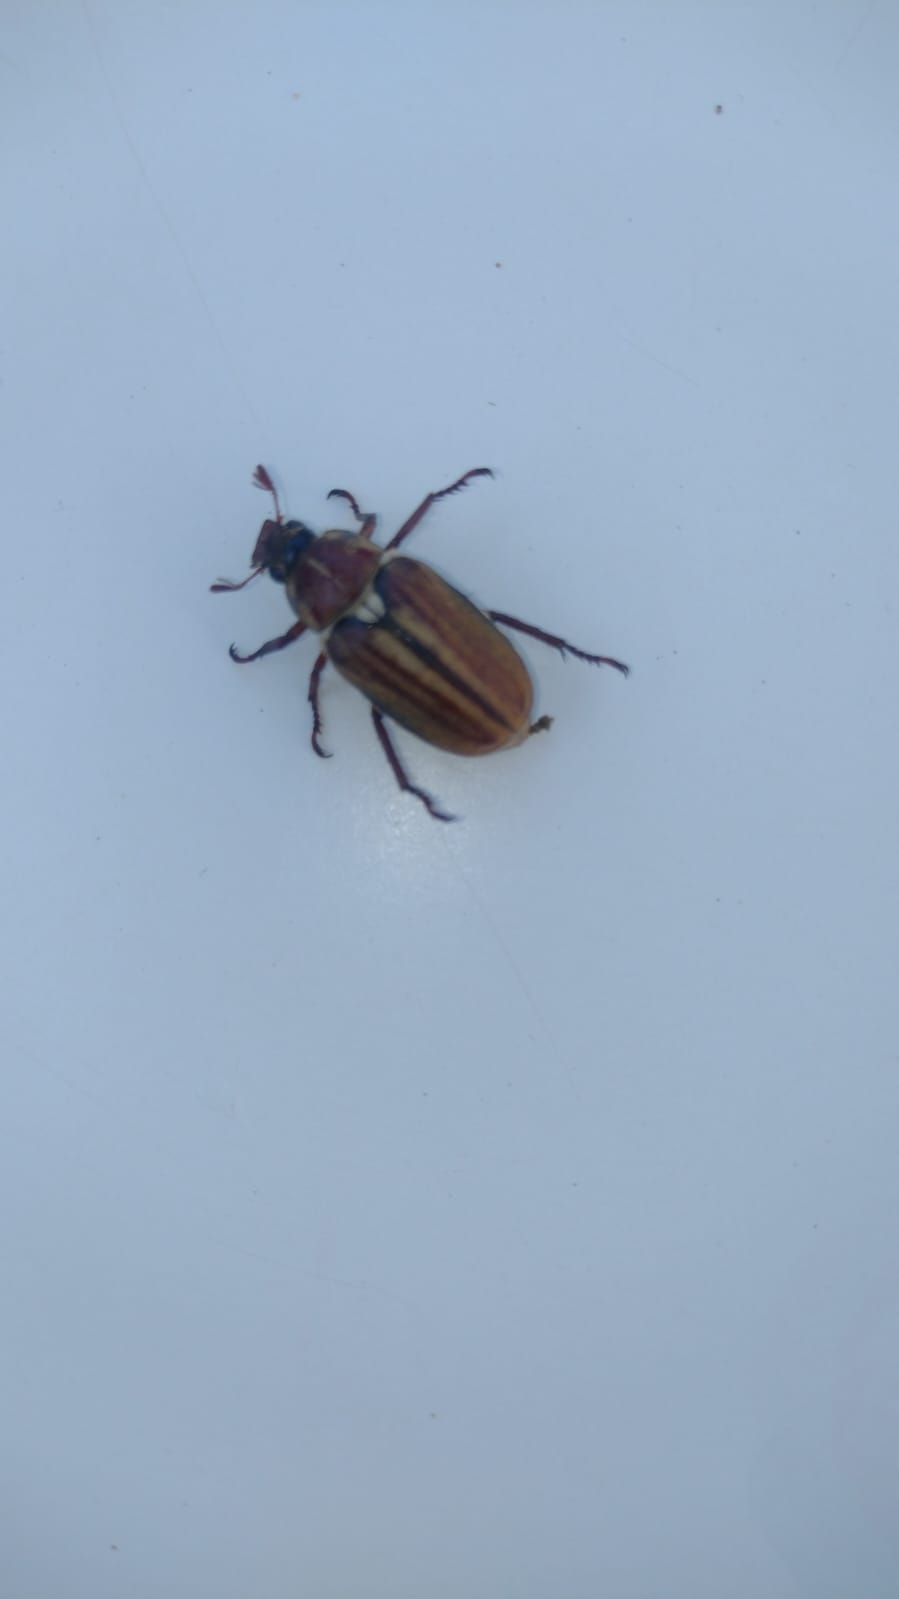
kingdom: Animalia
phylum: Arthropoda
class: Insecta
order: Coleoptera
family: Scarabaeidae
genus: Anoxia
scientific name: Anoxia matutinalis
